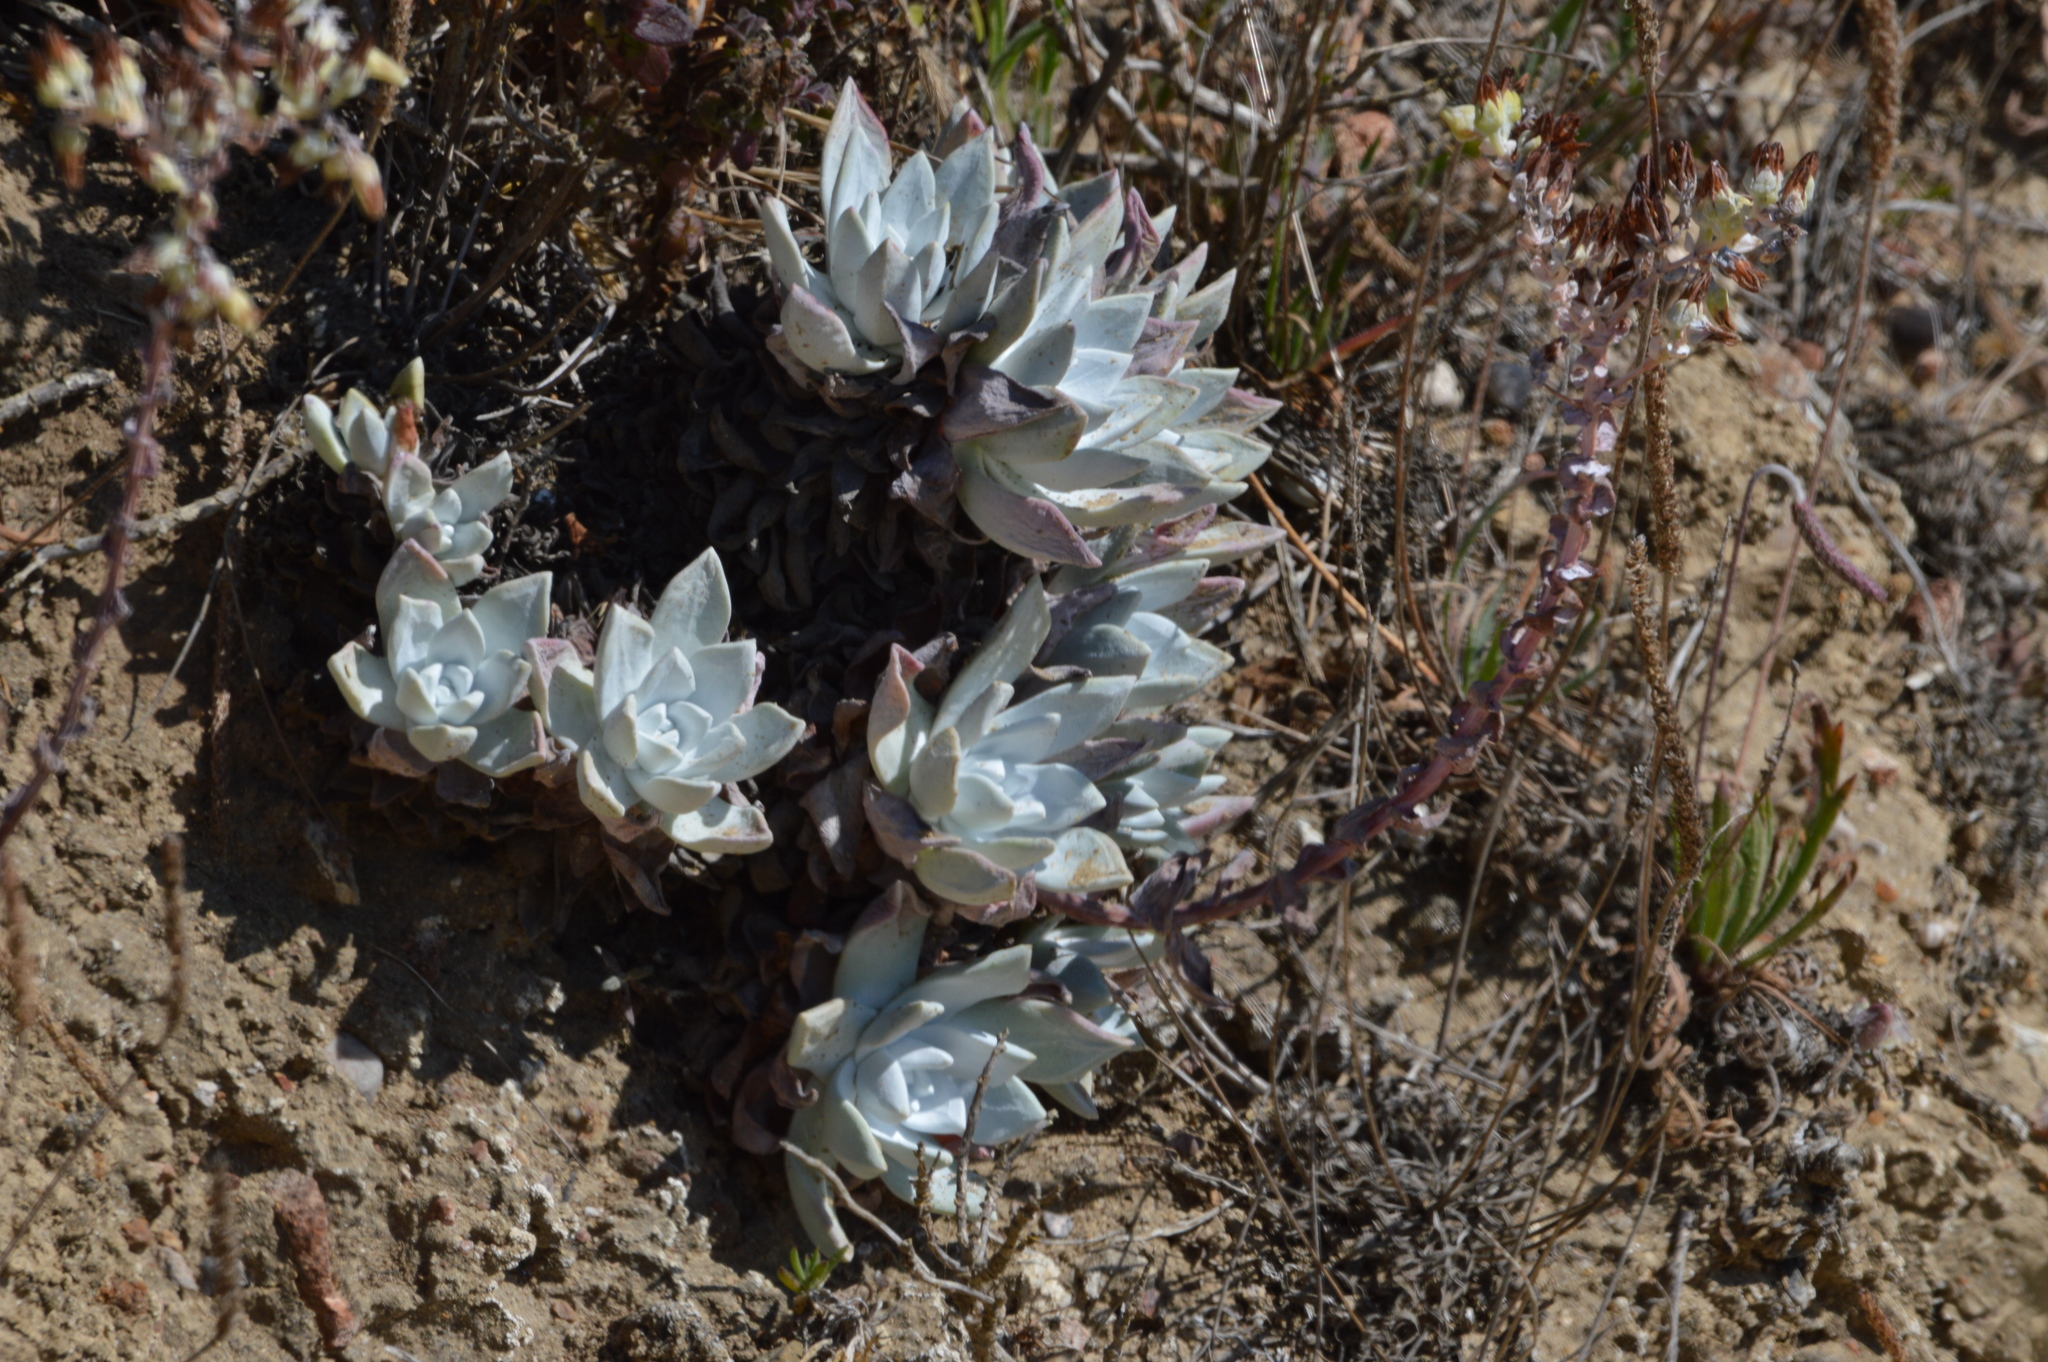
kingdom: Plantae
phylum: Tracheophyta
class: Magnoliopsida
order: Saxifragales
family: Crassulaceae
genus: Dudleya
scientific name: Dudleya farinosa
